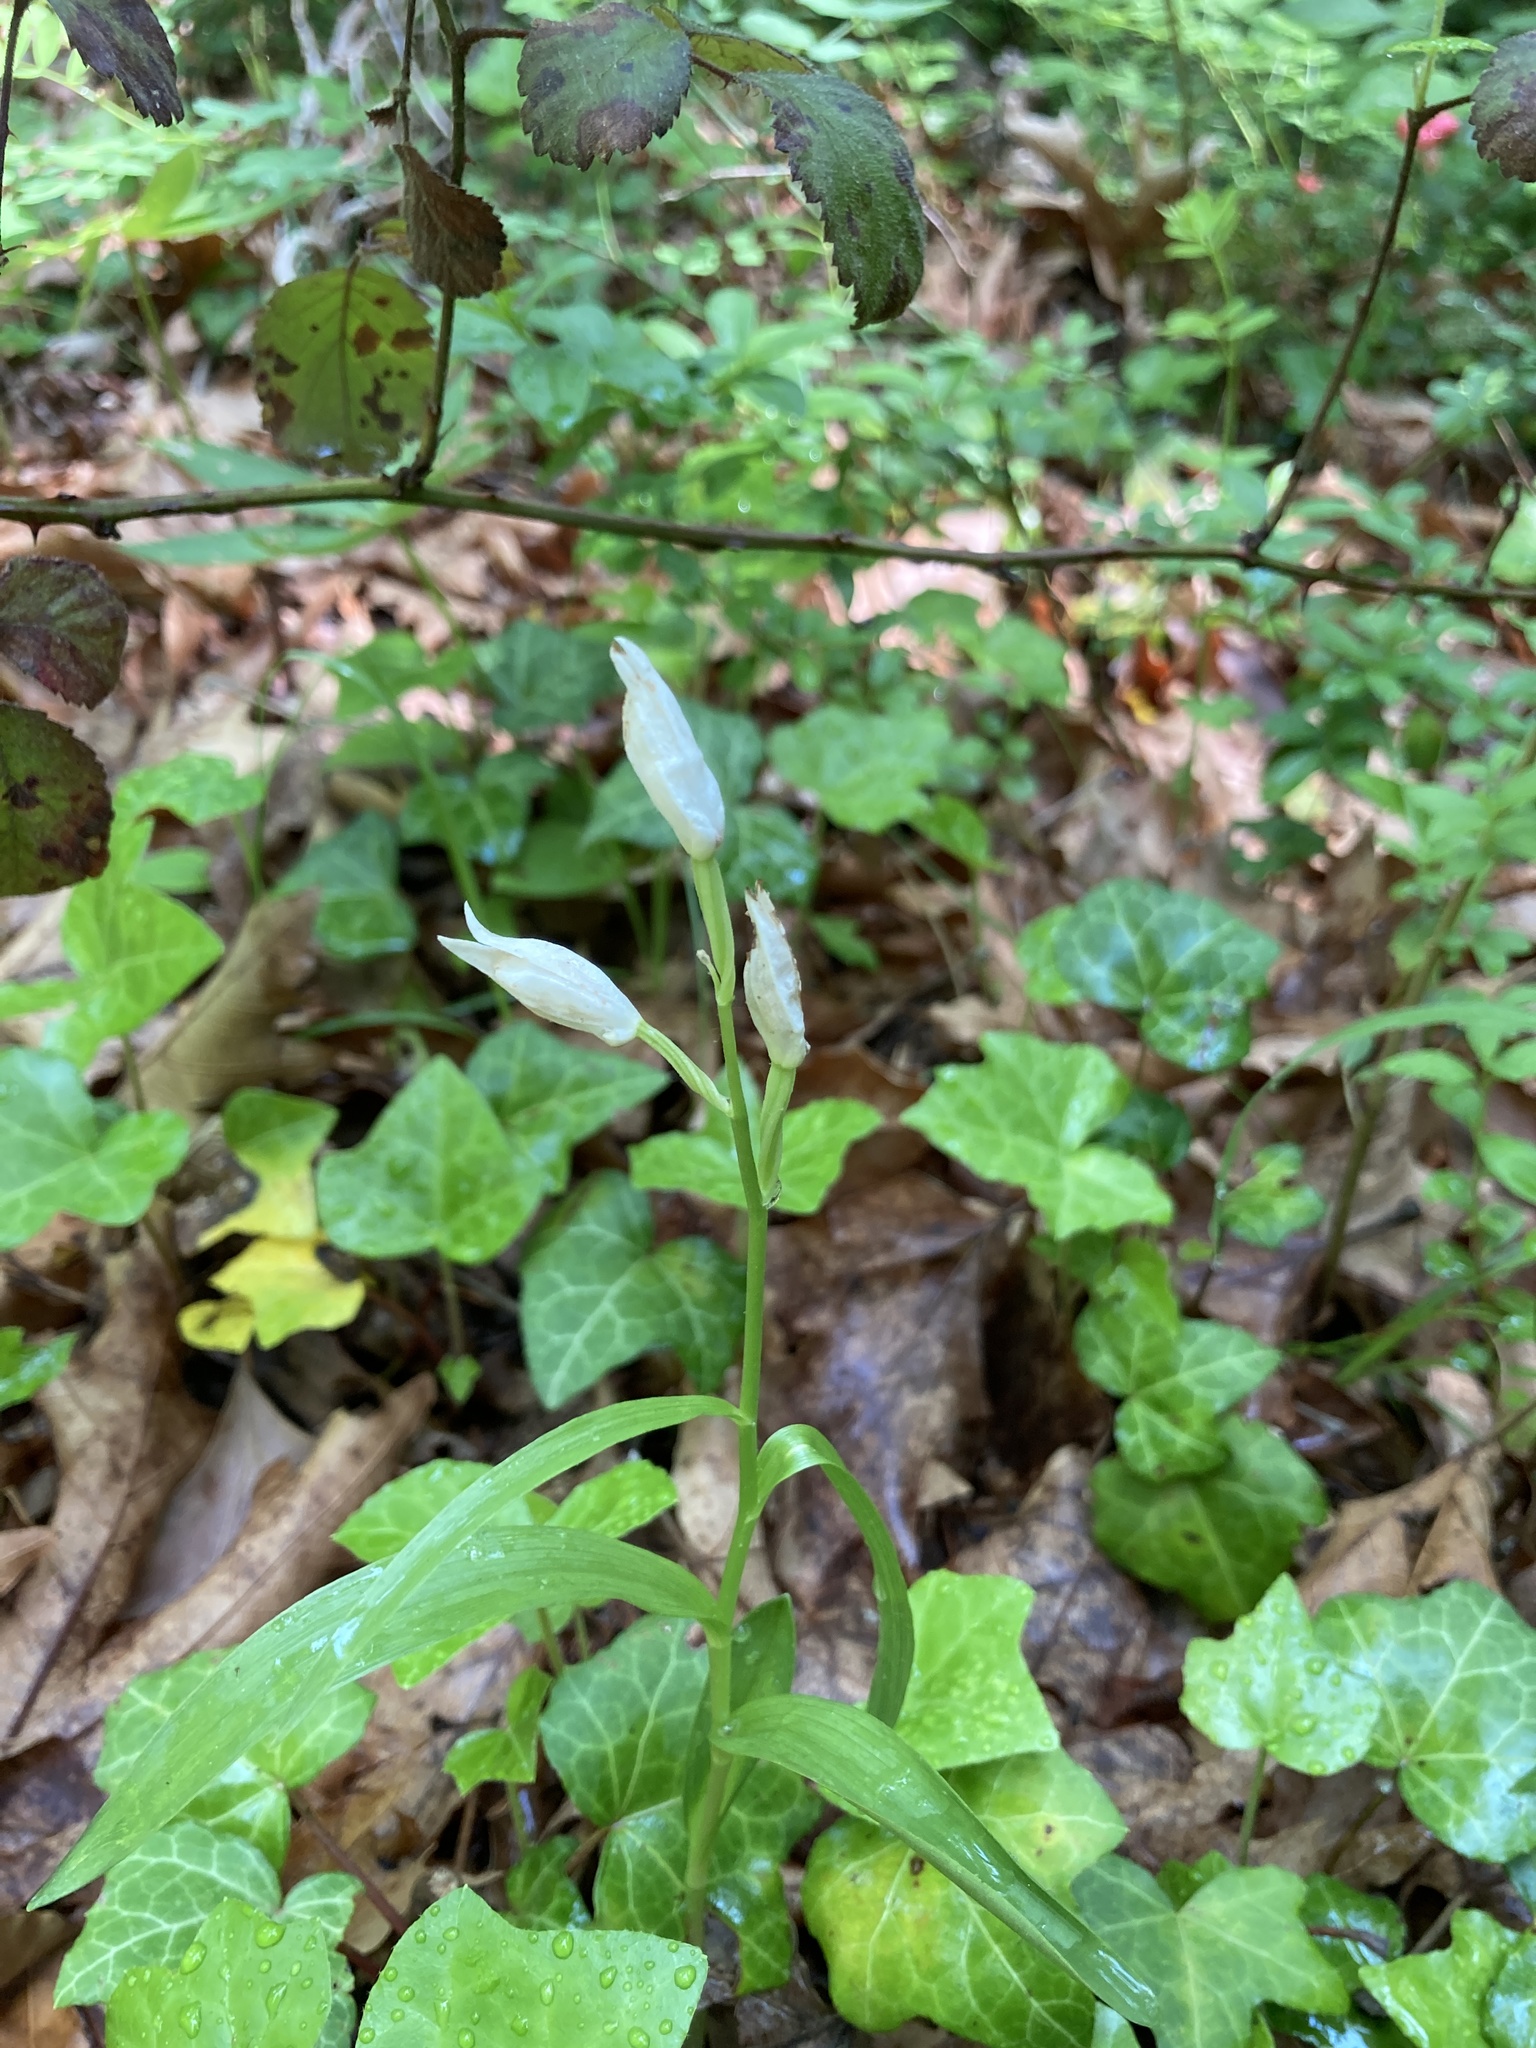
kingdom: Plantae
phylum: Tracheophyta
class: Liliopsida
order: Asparagales
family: Orchidaceae
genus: Cephalanthera
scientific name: Cephalanthera longifolia
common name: Narrow-leaved helleborine
